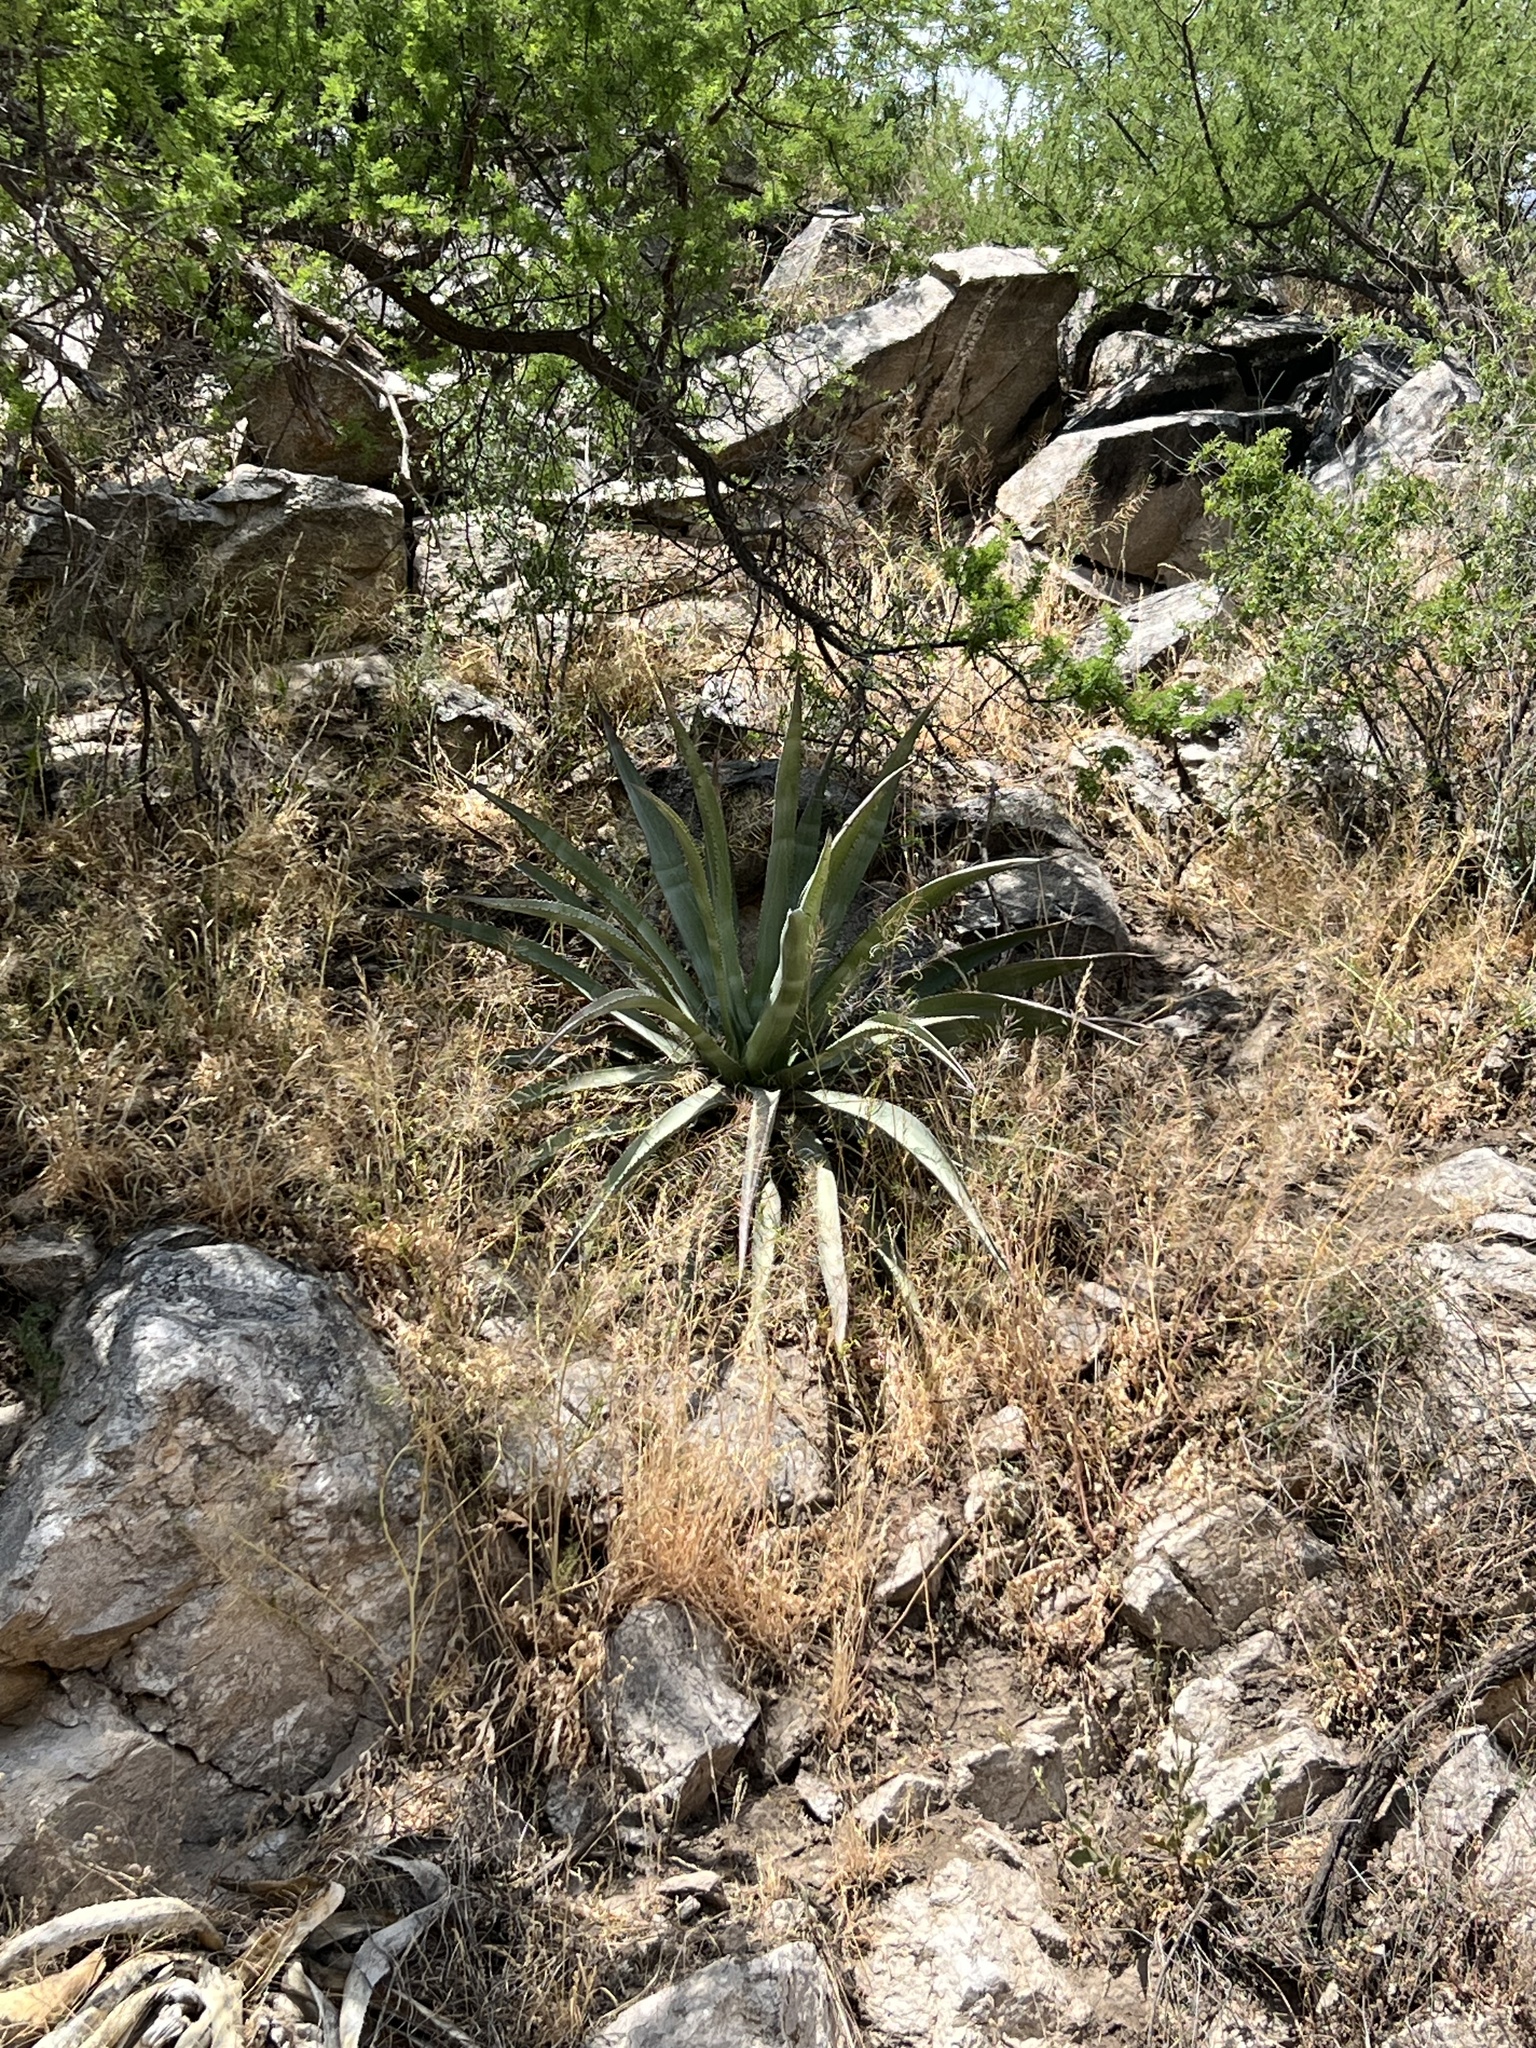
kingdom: Plantae
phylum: Tracheophyta
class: Liliopsida
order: Asparagales
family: Asparagaceae
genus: Agave
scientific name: Agave palmeri
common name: Palmer agave
